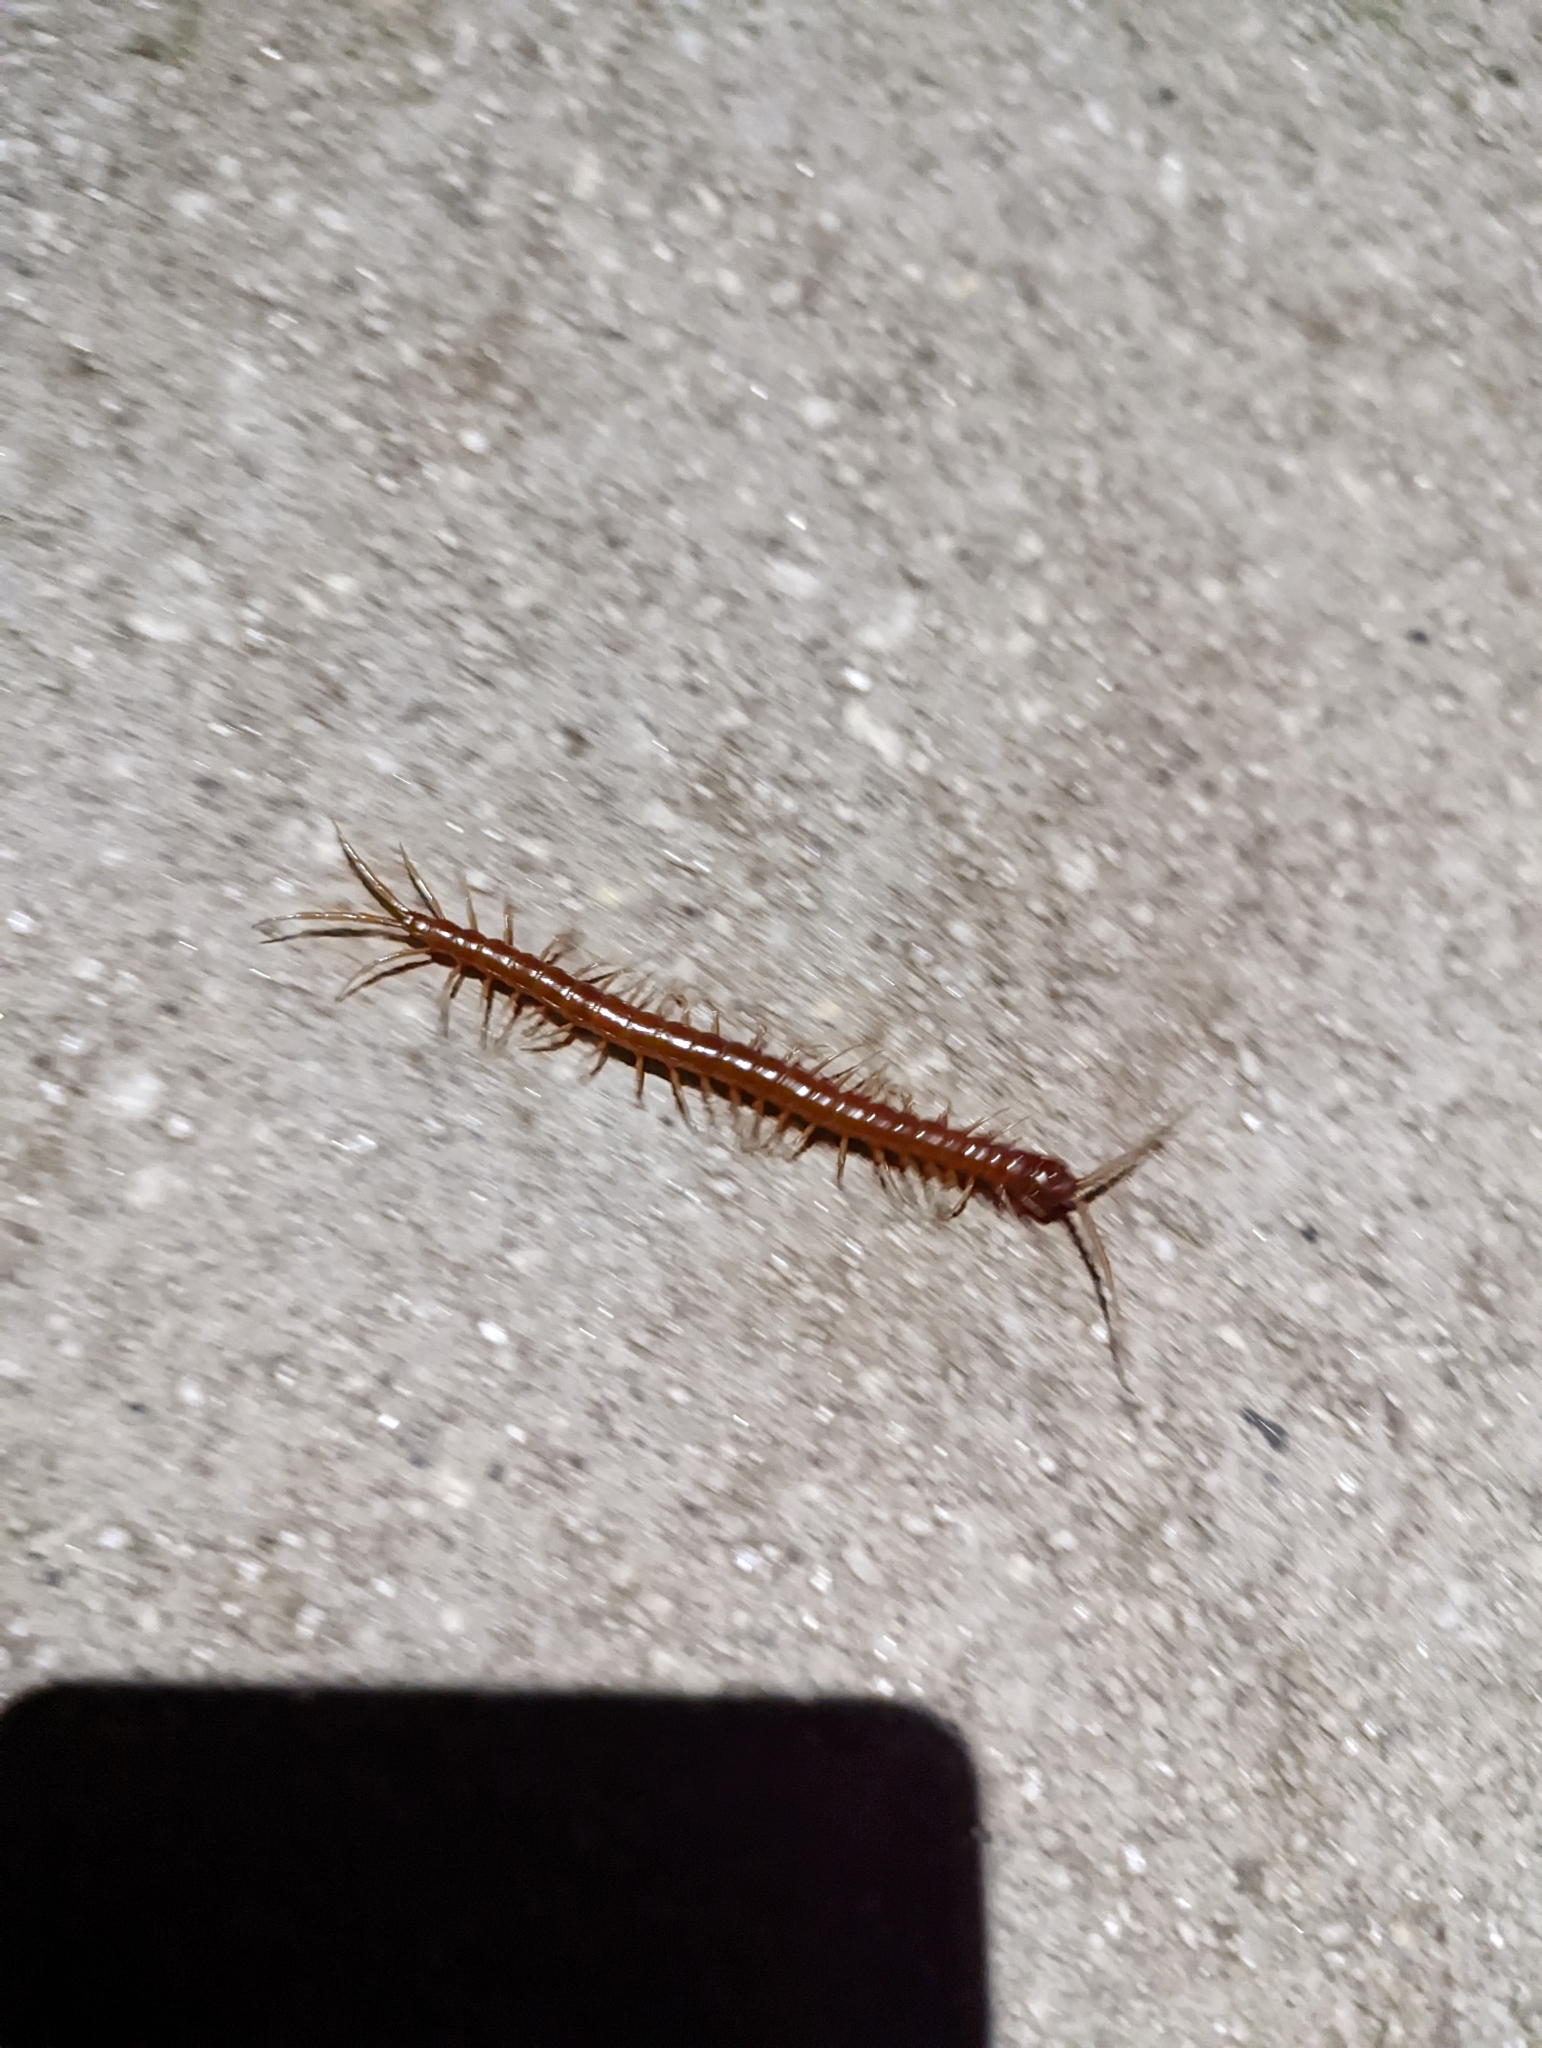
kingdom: Animalia
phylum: Arthropoda
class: Chilopoda
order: Scolopendromorpha
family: Scolopocryptopidae
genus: Scolopocryptops
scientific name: Scolopocryptops sexspinosus
